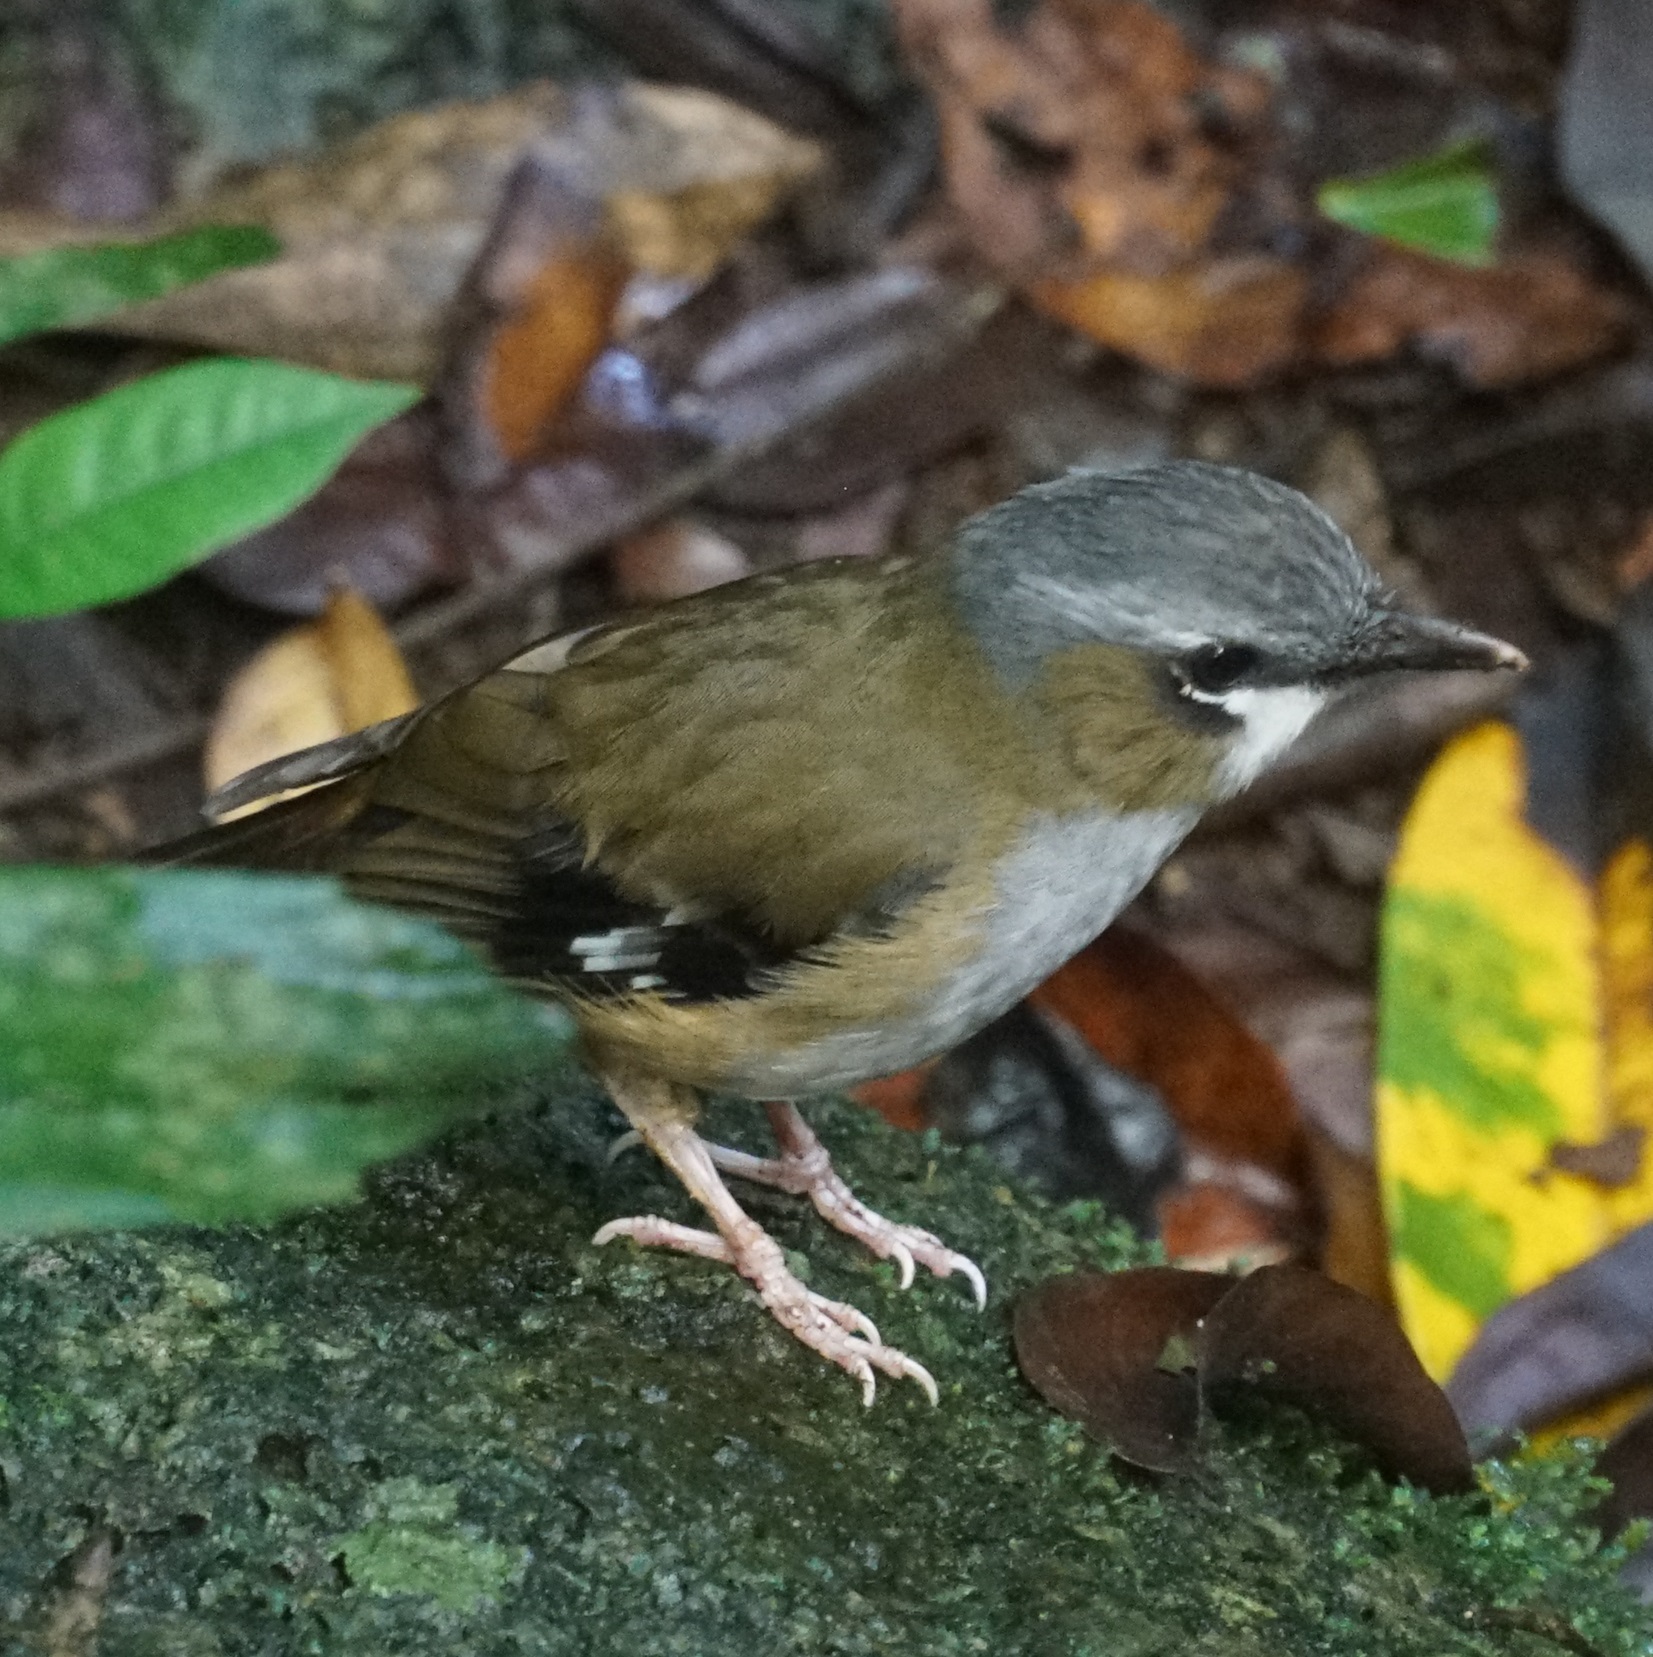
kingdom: Animalia
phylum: Chordata
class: Aves
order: Passeriformes
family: Petroicidae
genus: Heteromyias
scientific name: Heteromyias cinereifrons
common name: Grey-headed robin
